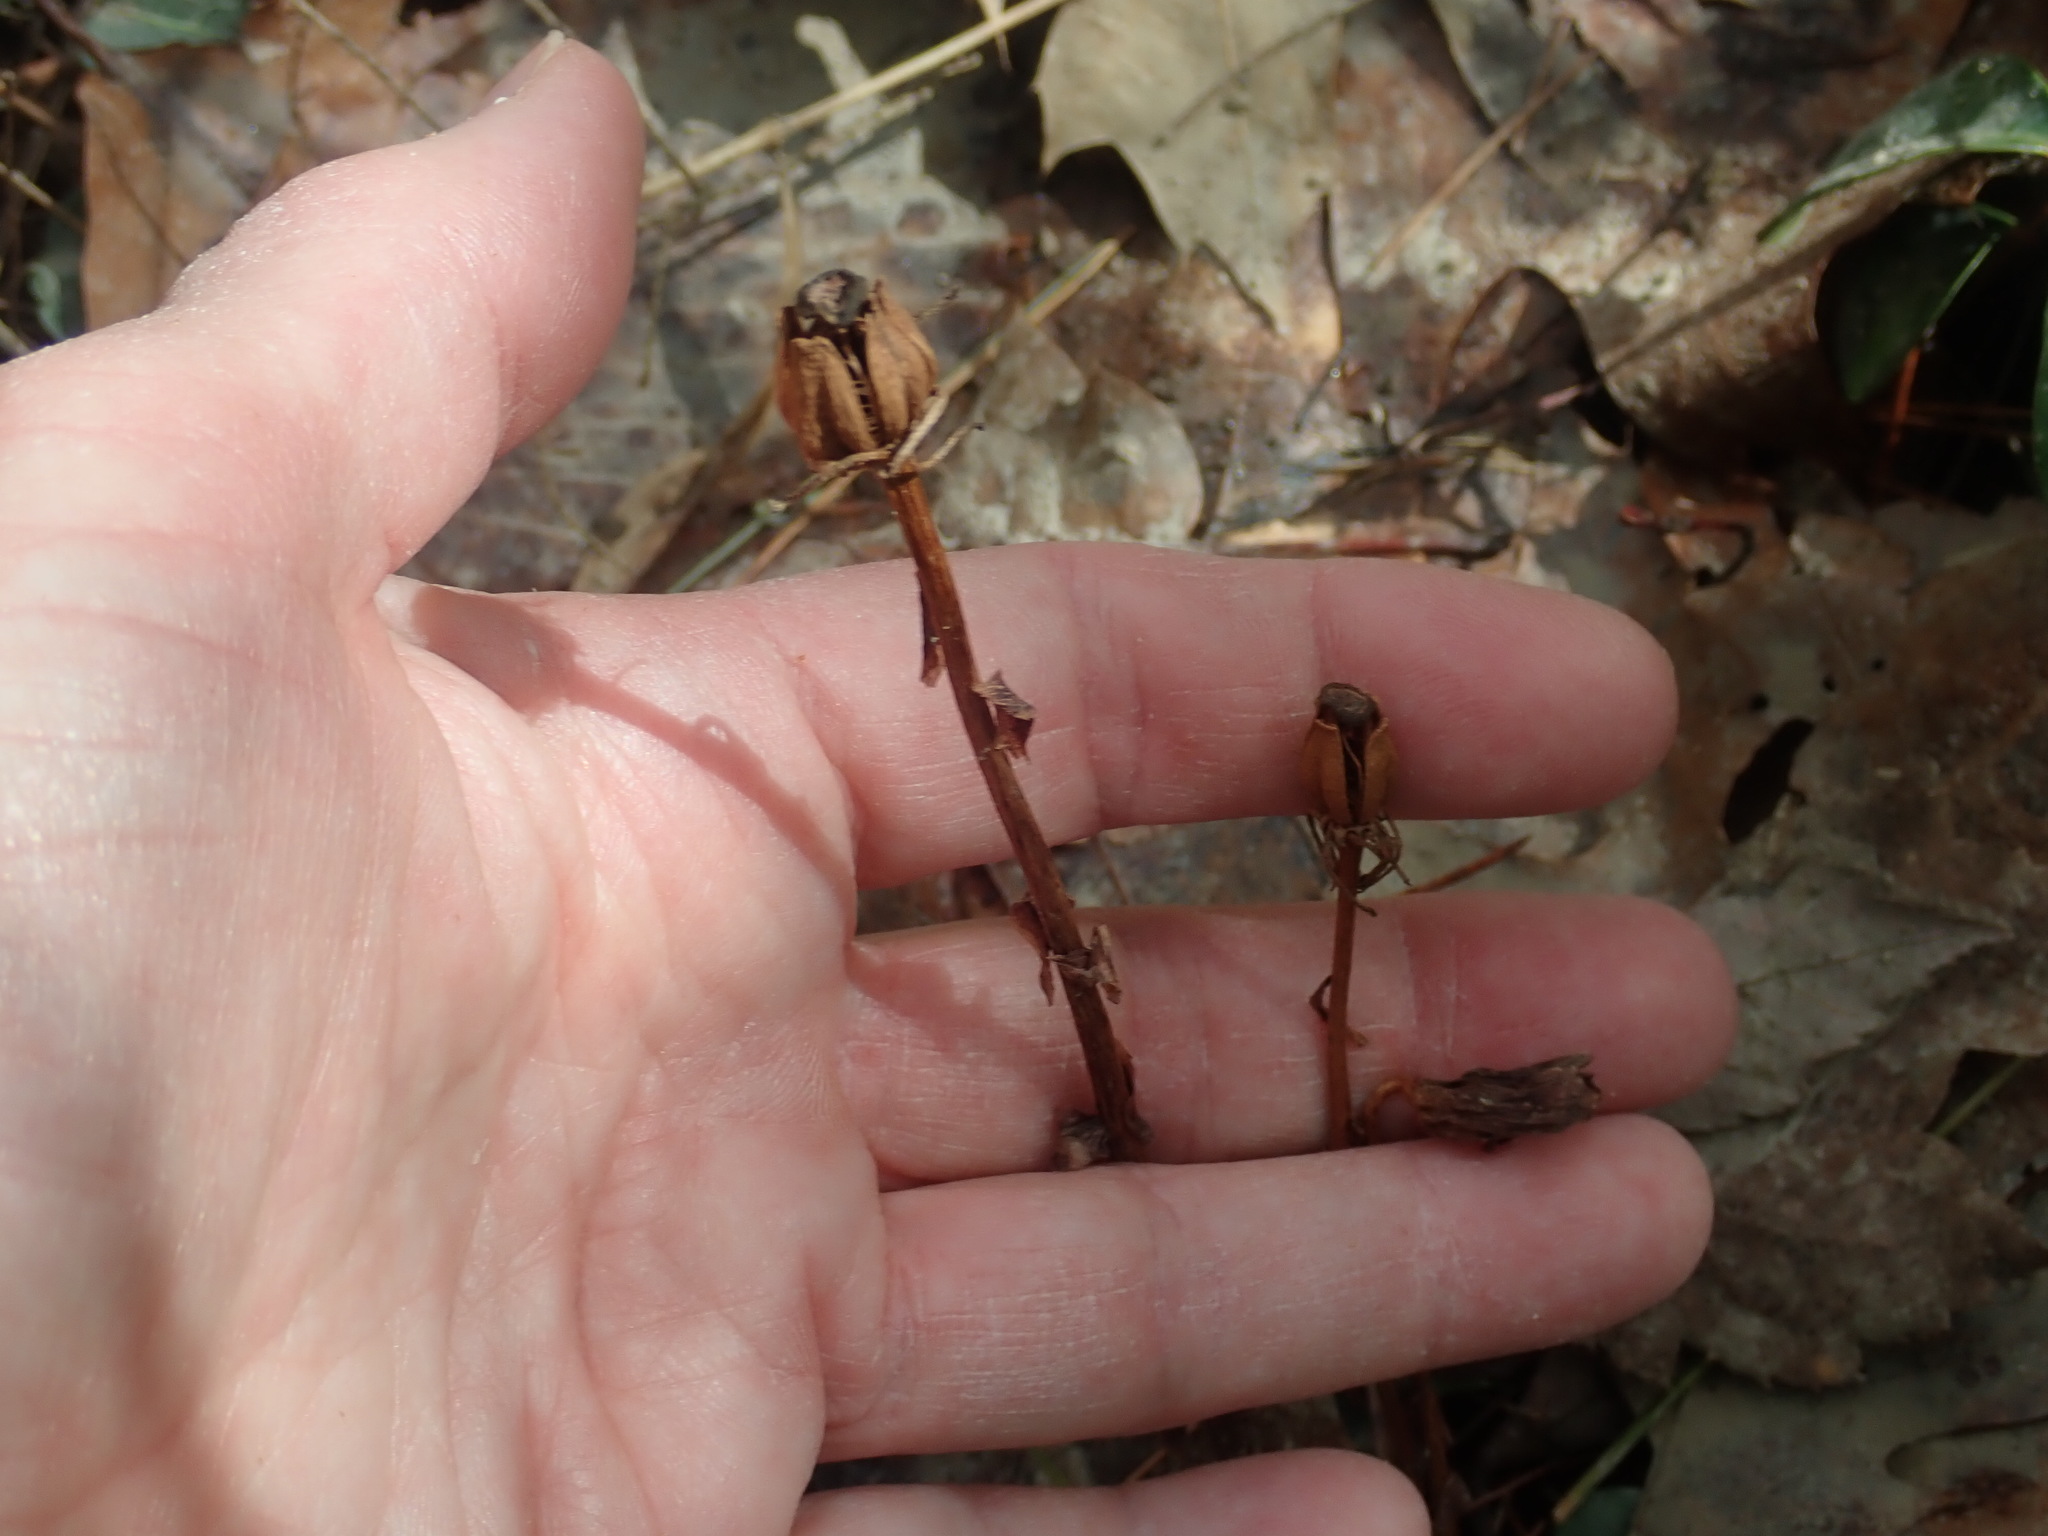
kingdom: Plantae
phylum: Tracheophyta
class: Magnoliopsida
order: Ericales
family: Ericaceae
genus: Monotropa
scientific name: Monotropa uniflora
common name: Convulsion root
